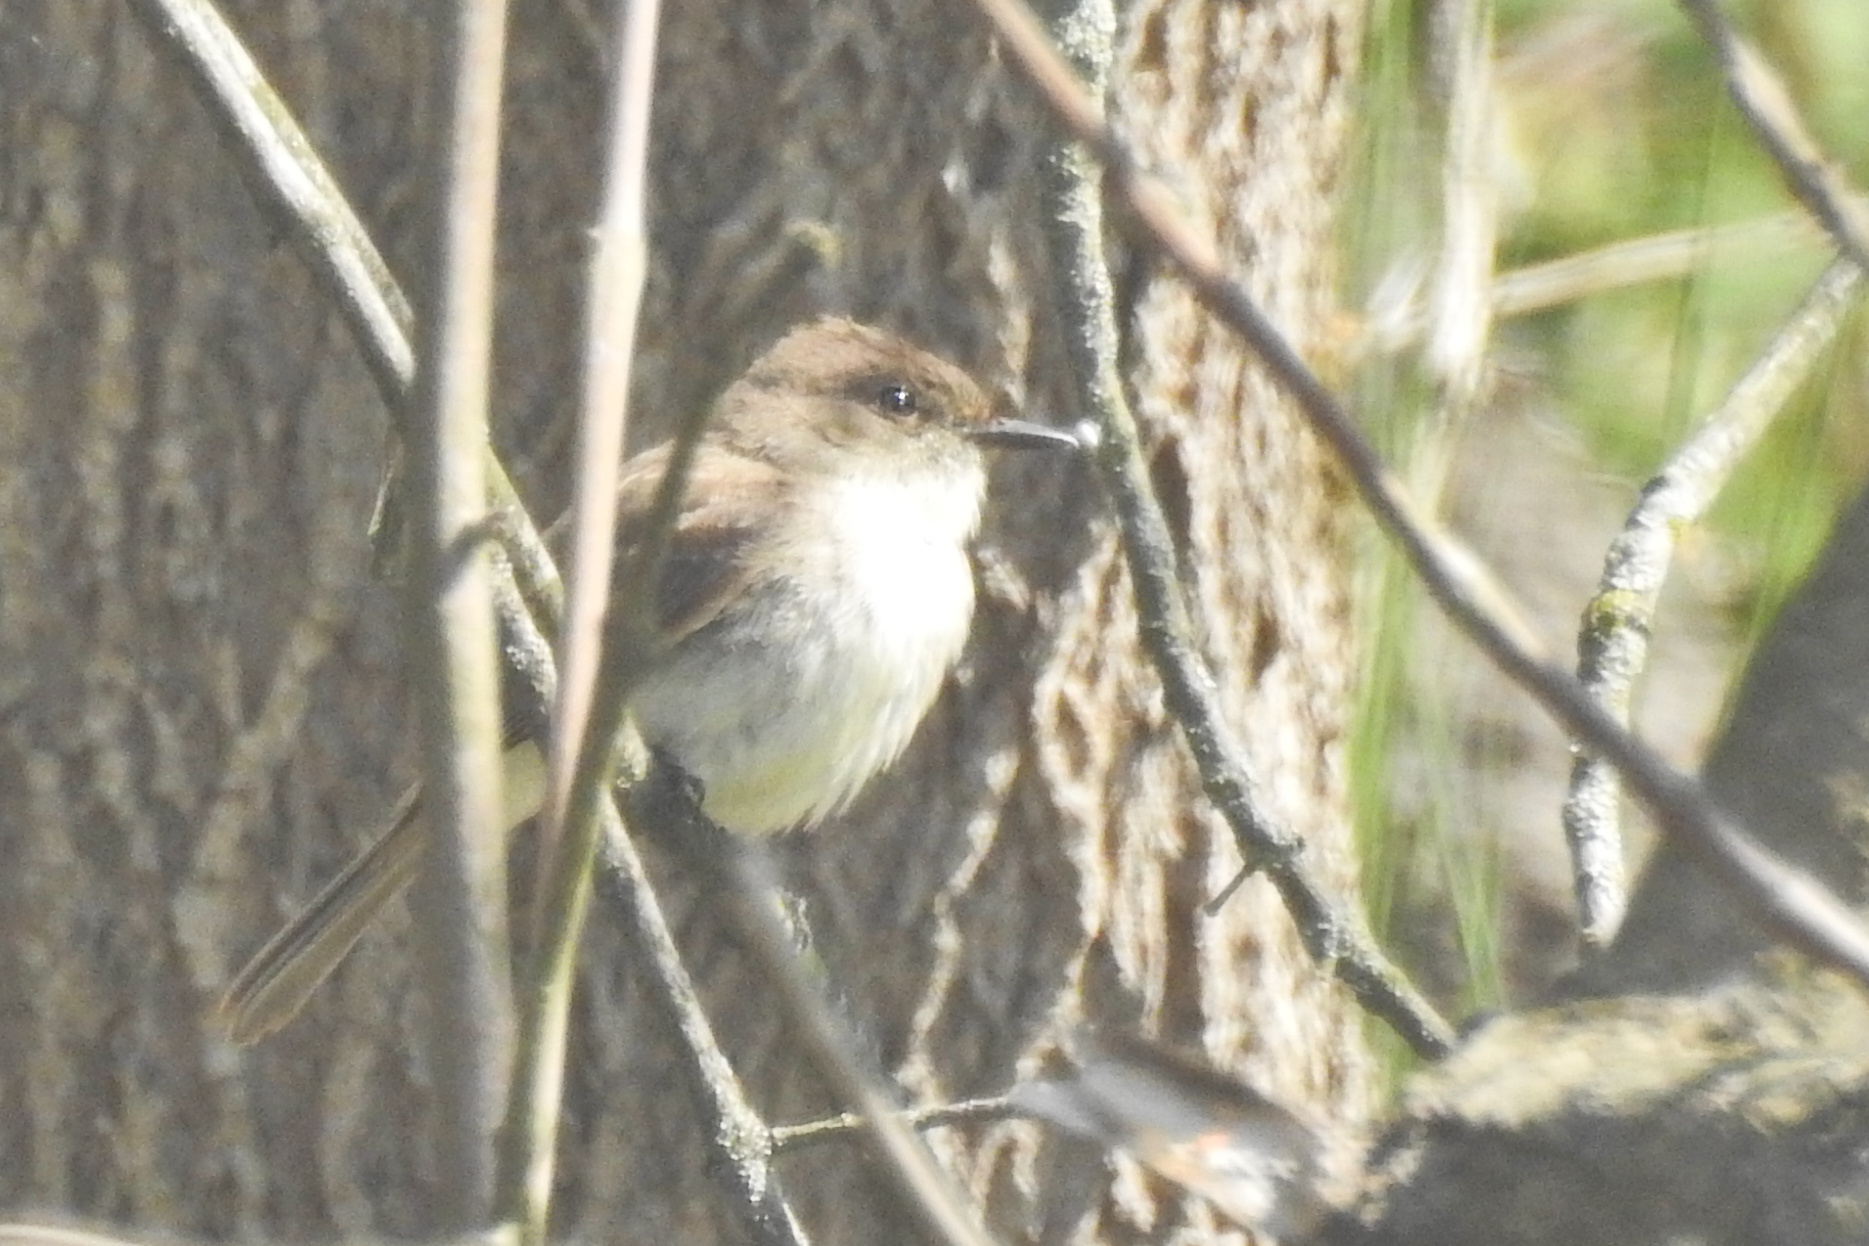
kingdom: Animalia
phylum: Chordata
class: Aves
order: Passeriformes
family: Tyrannidae
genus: Sayornis
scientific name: Sayornis phoebe
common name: Eastern phoebe
